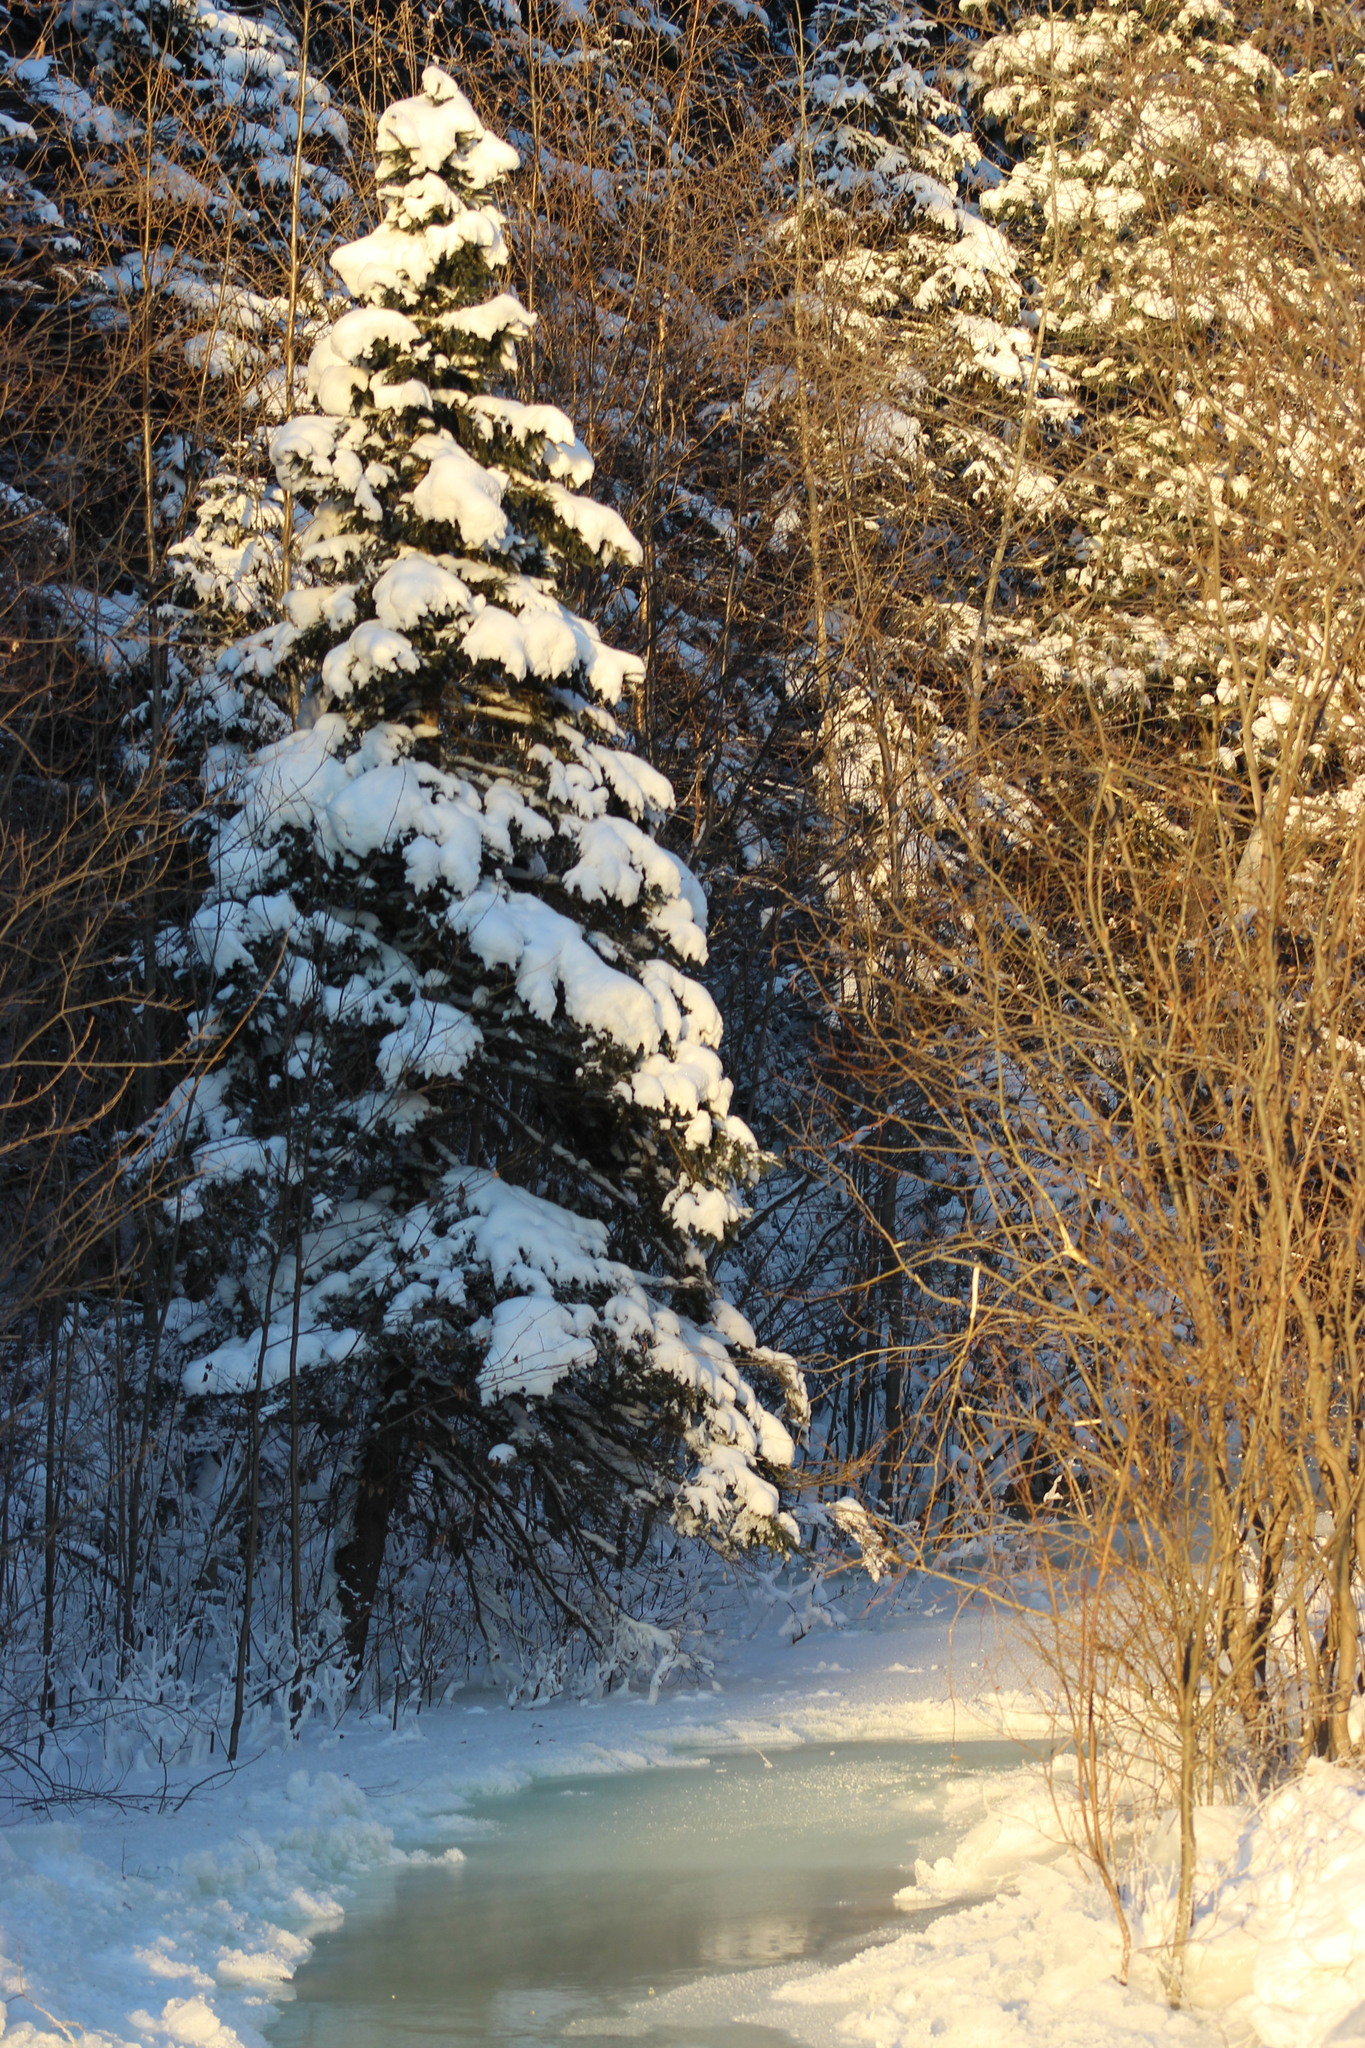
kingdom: Plantae
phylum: Tracheophyta
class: Pinopsida
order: Pinales
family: Pinaceae
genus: Picea
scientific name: Picea obovata
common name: Siberian spruce
